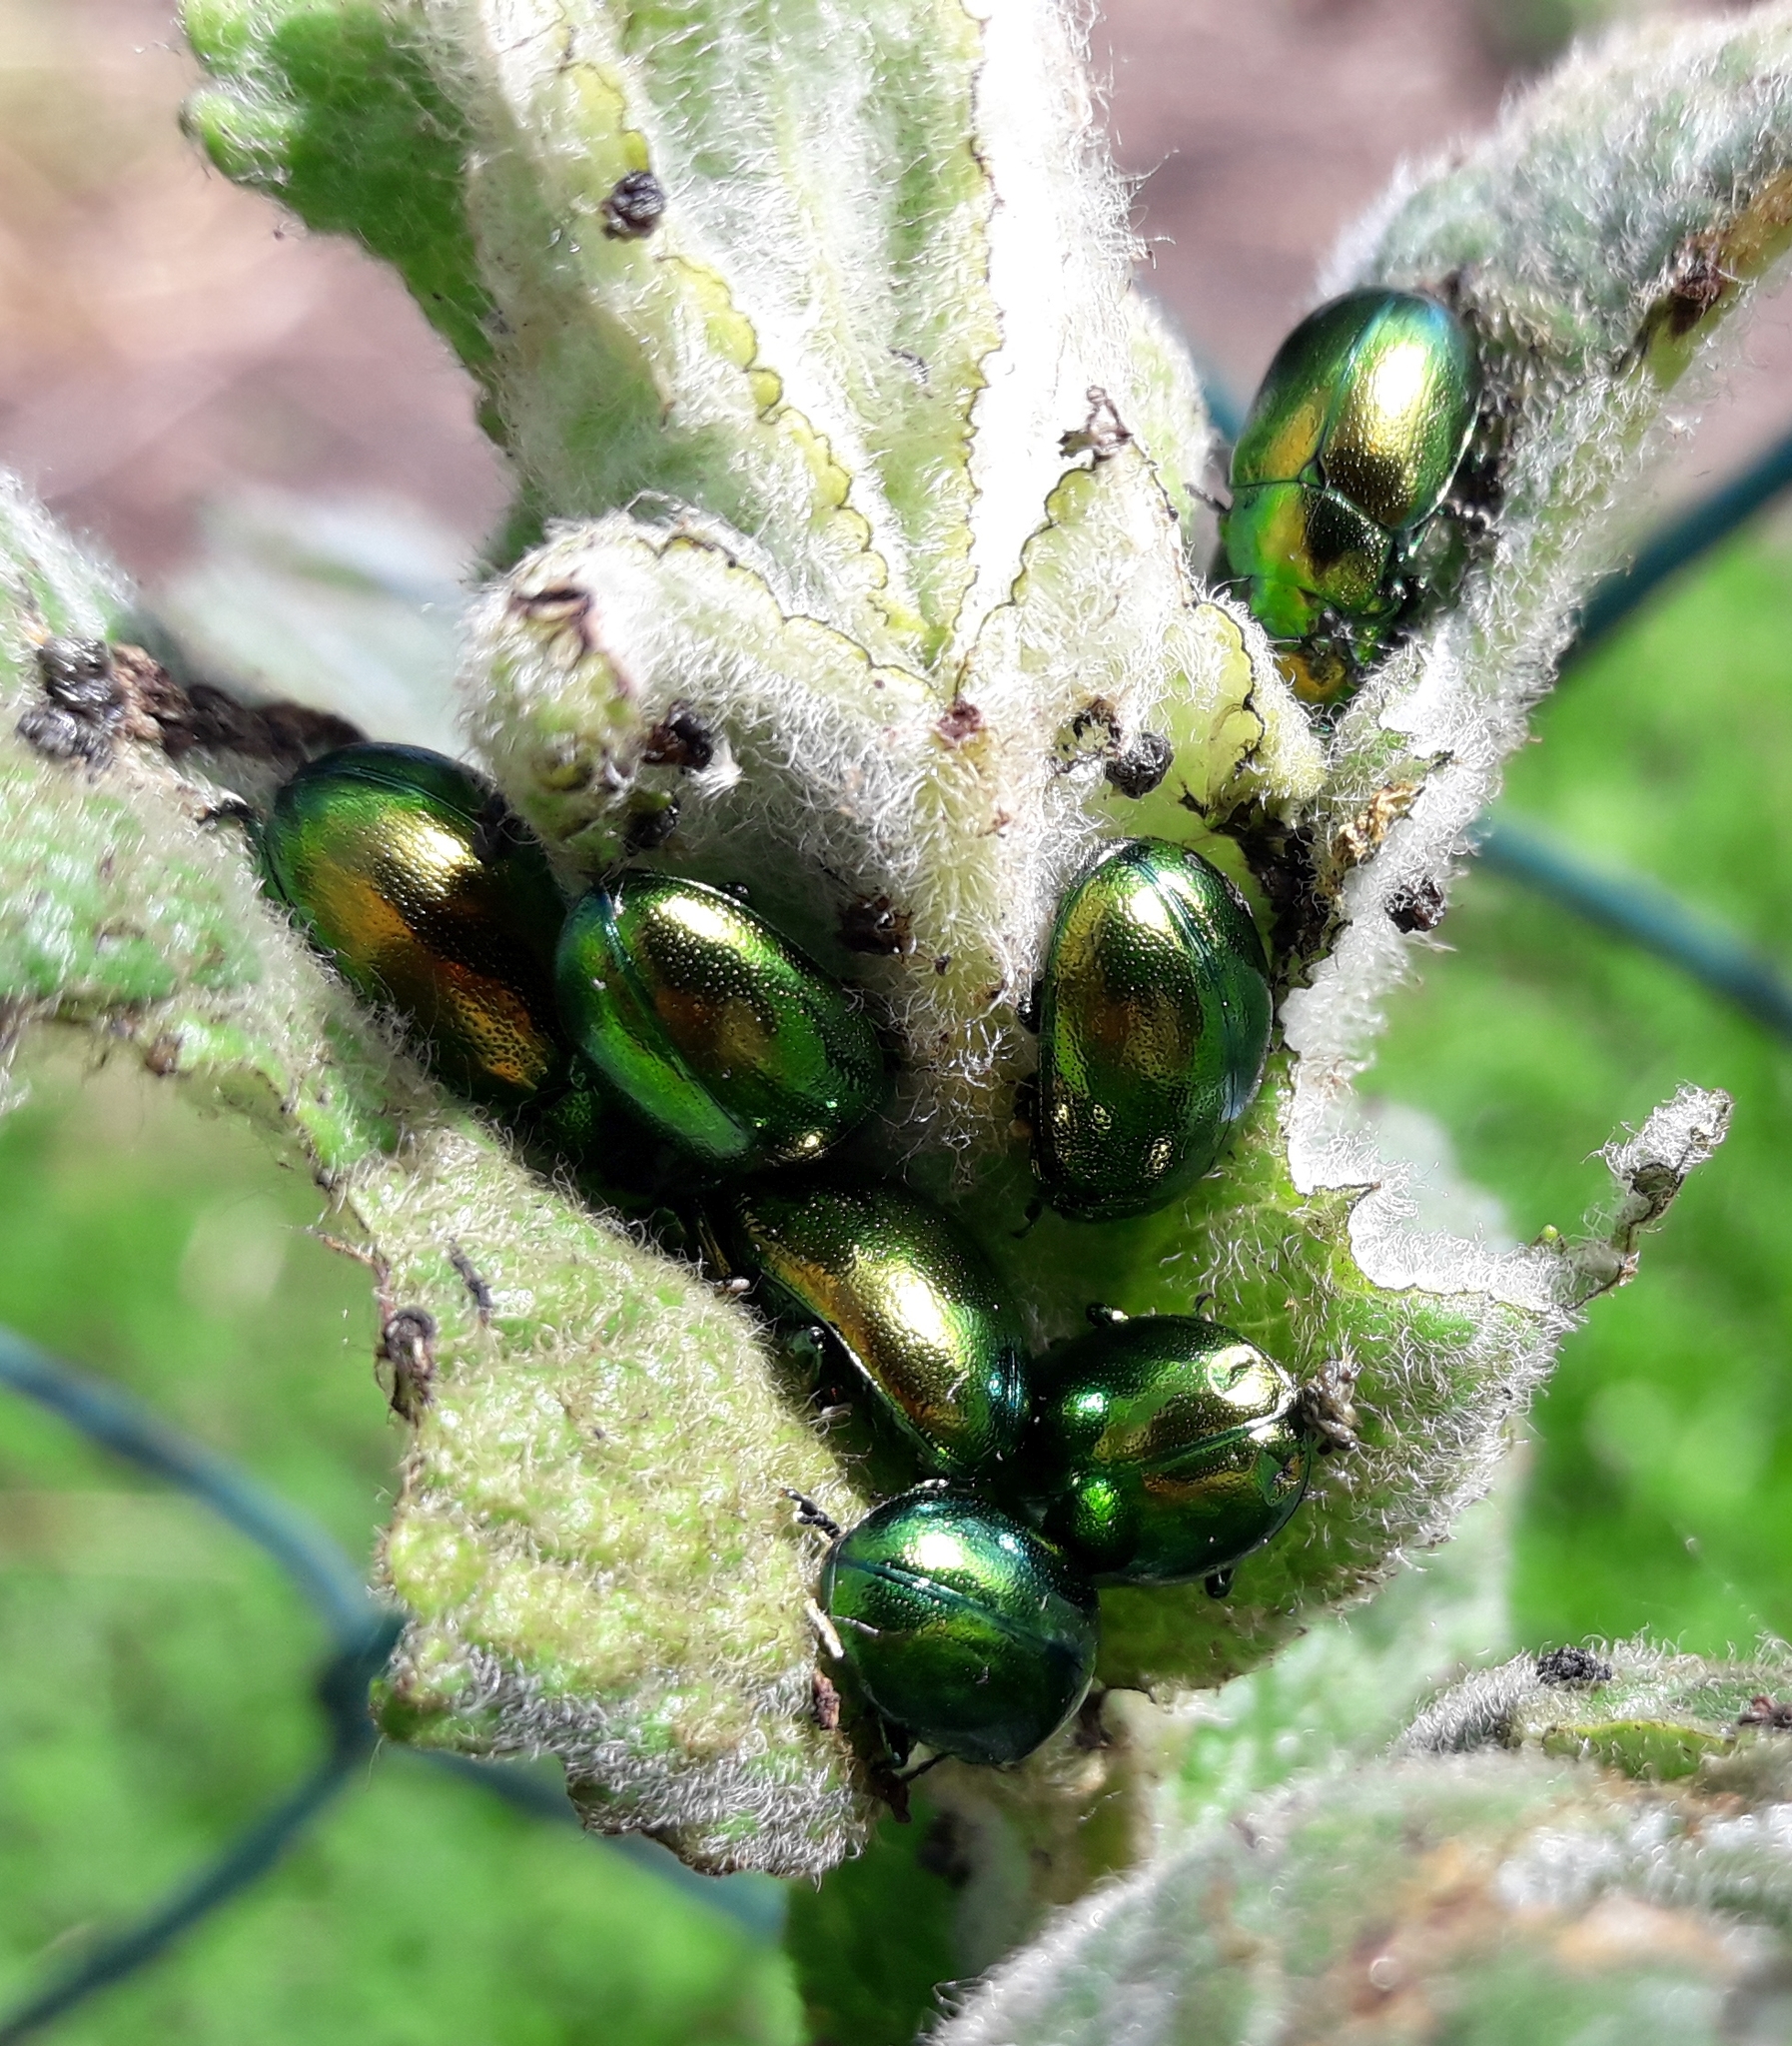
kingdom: Animalia
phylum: Arthropoda
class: Insecta
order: Coleoptera
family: Chrysomelidae
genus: Chrysolina
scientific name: Chrysolina herbacea
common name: Mint leaf beatle
